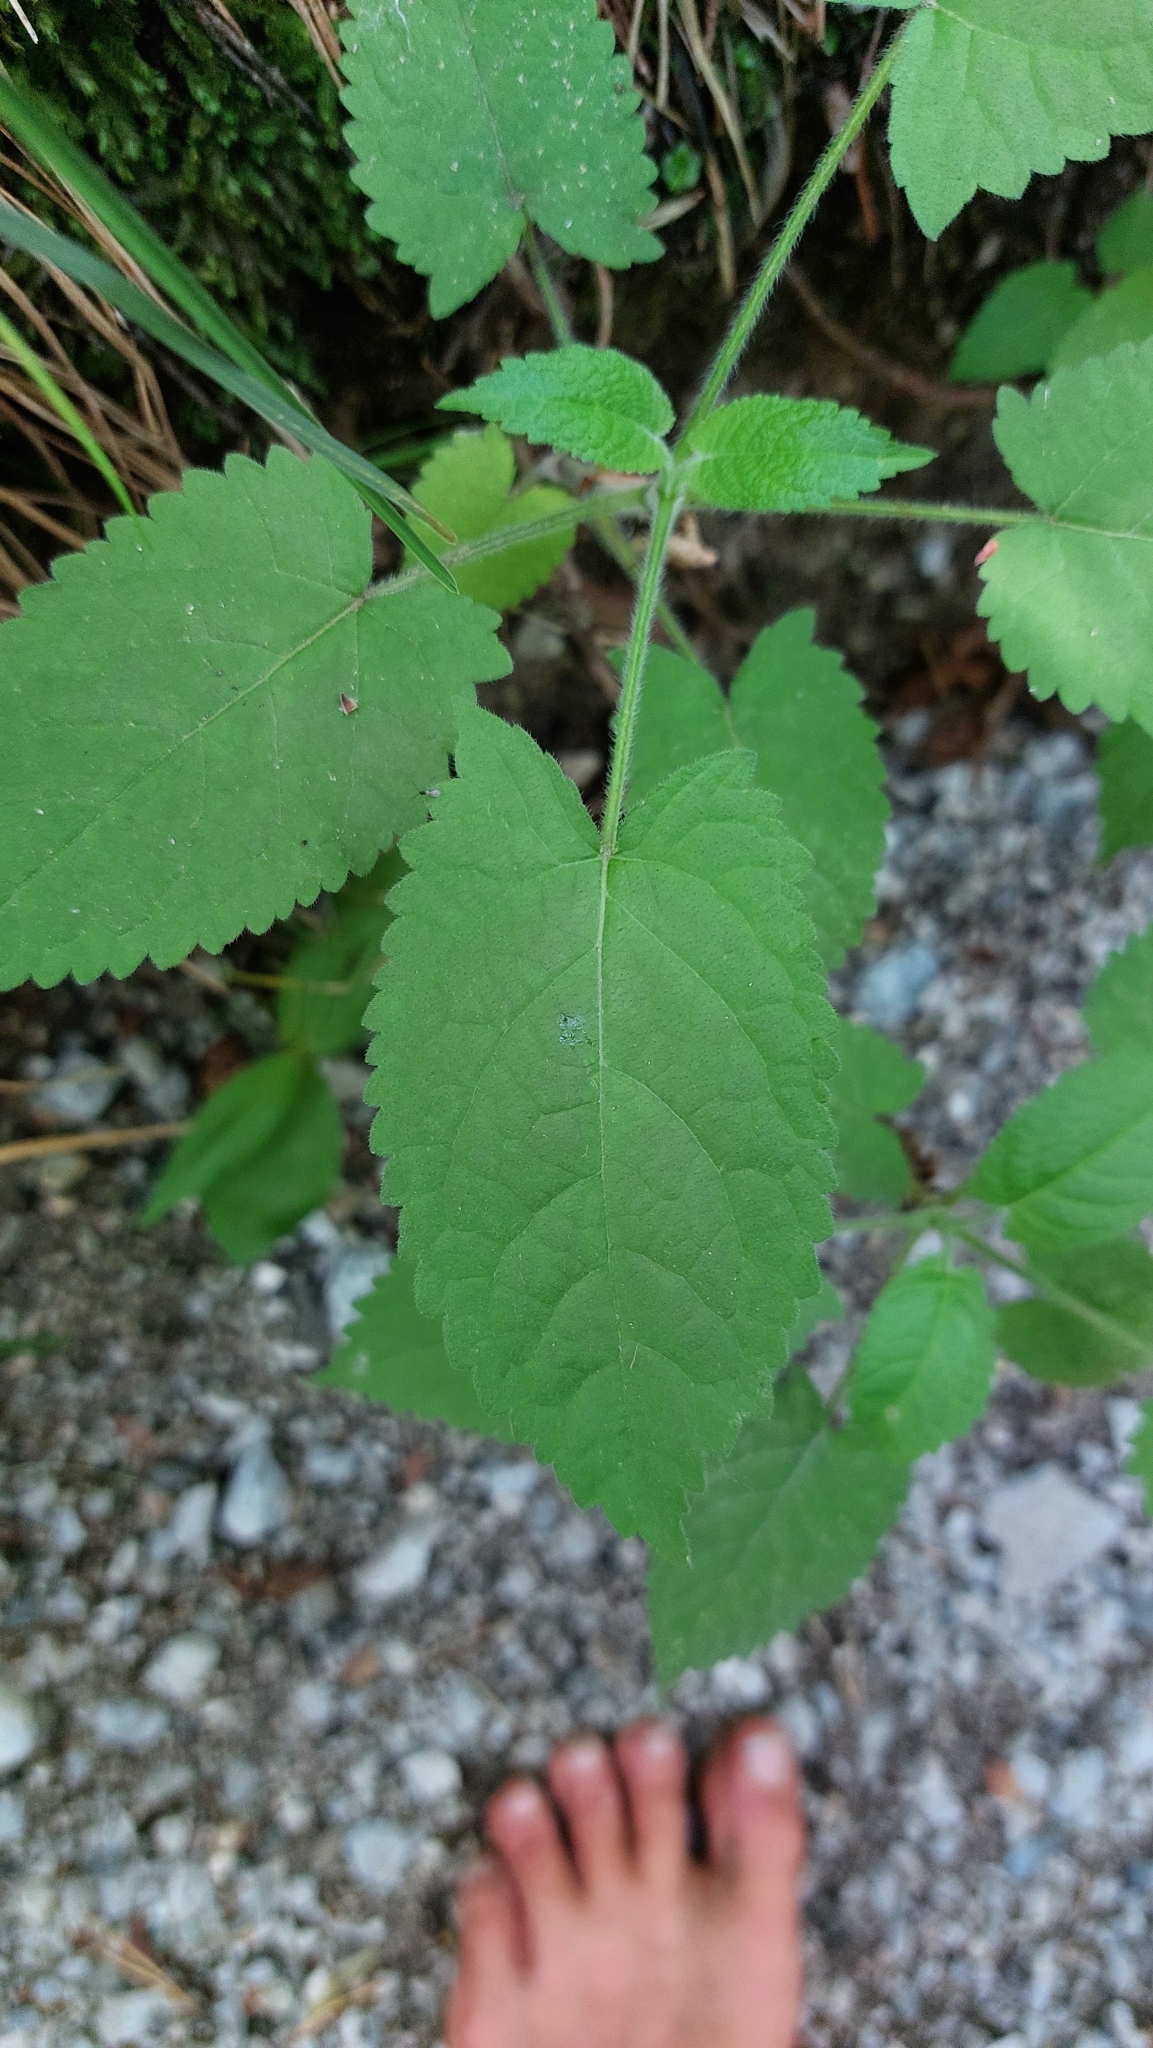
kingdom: Plantae
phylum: Tracheophyta
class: Magnoliopsida
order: Lamiales
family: Lamiaceae
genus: Salvia
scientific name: Salvia glutinosa
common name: Sticky clary
